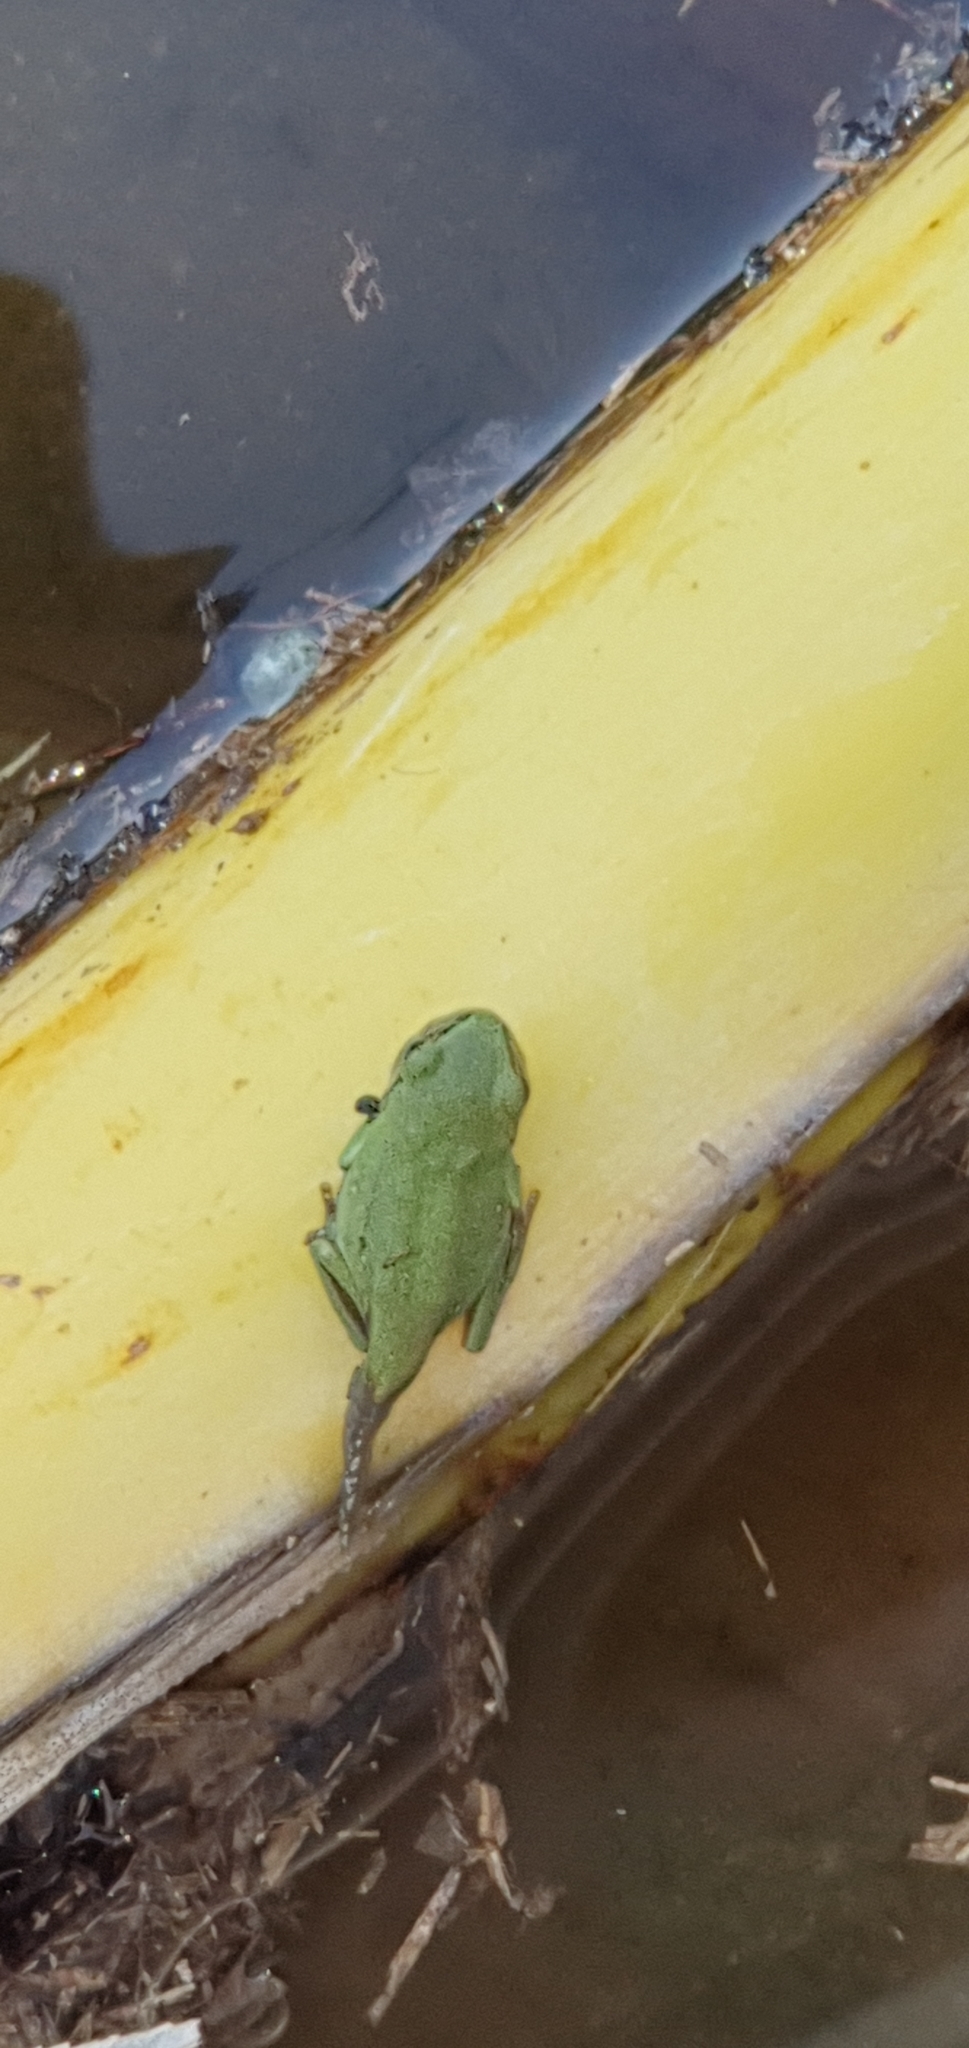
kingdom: Animalia
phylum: Chordata
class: Amphibia
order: Anura
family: Pelodryadidae
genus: Ranoidea
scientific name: Ranoidea caerulea
